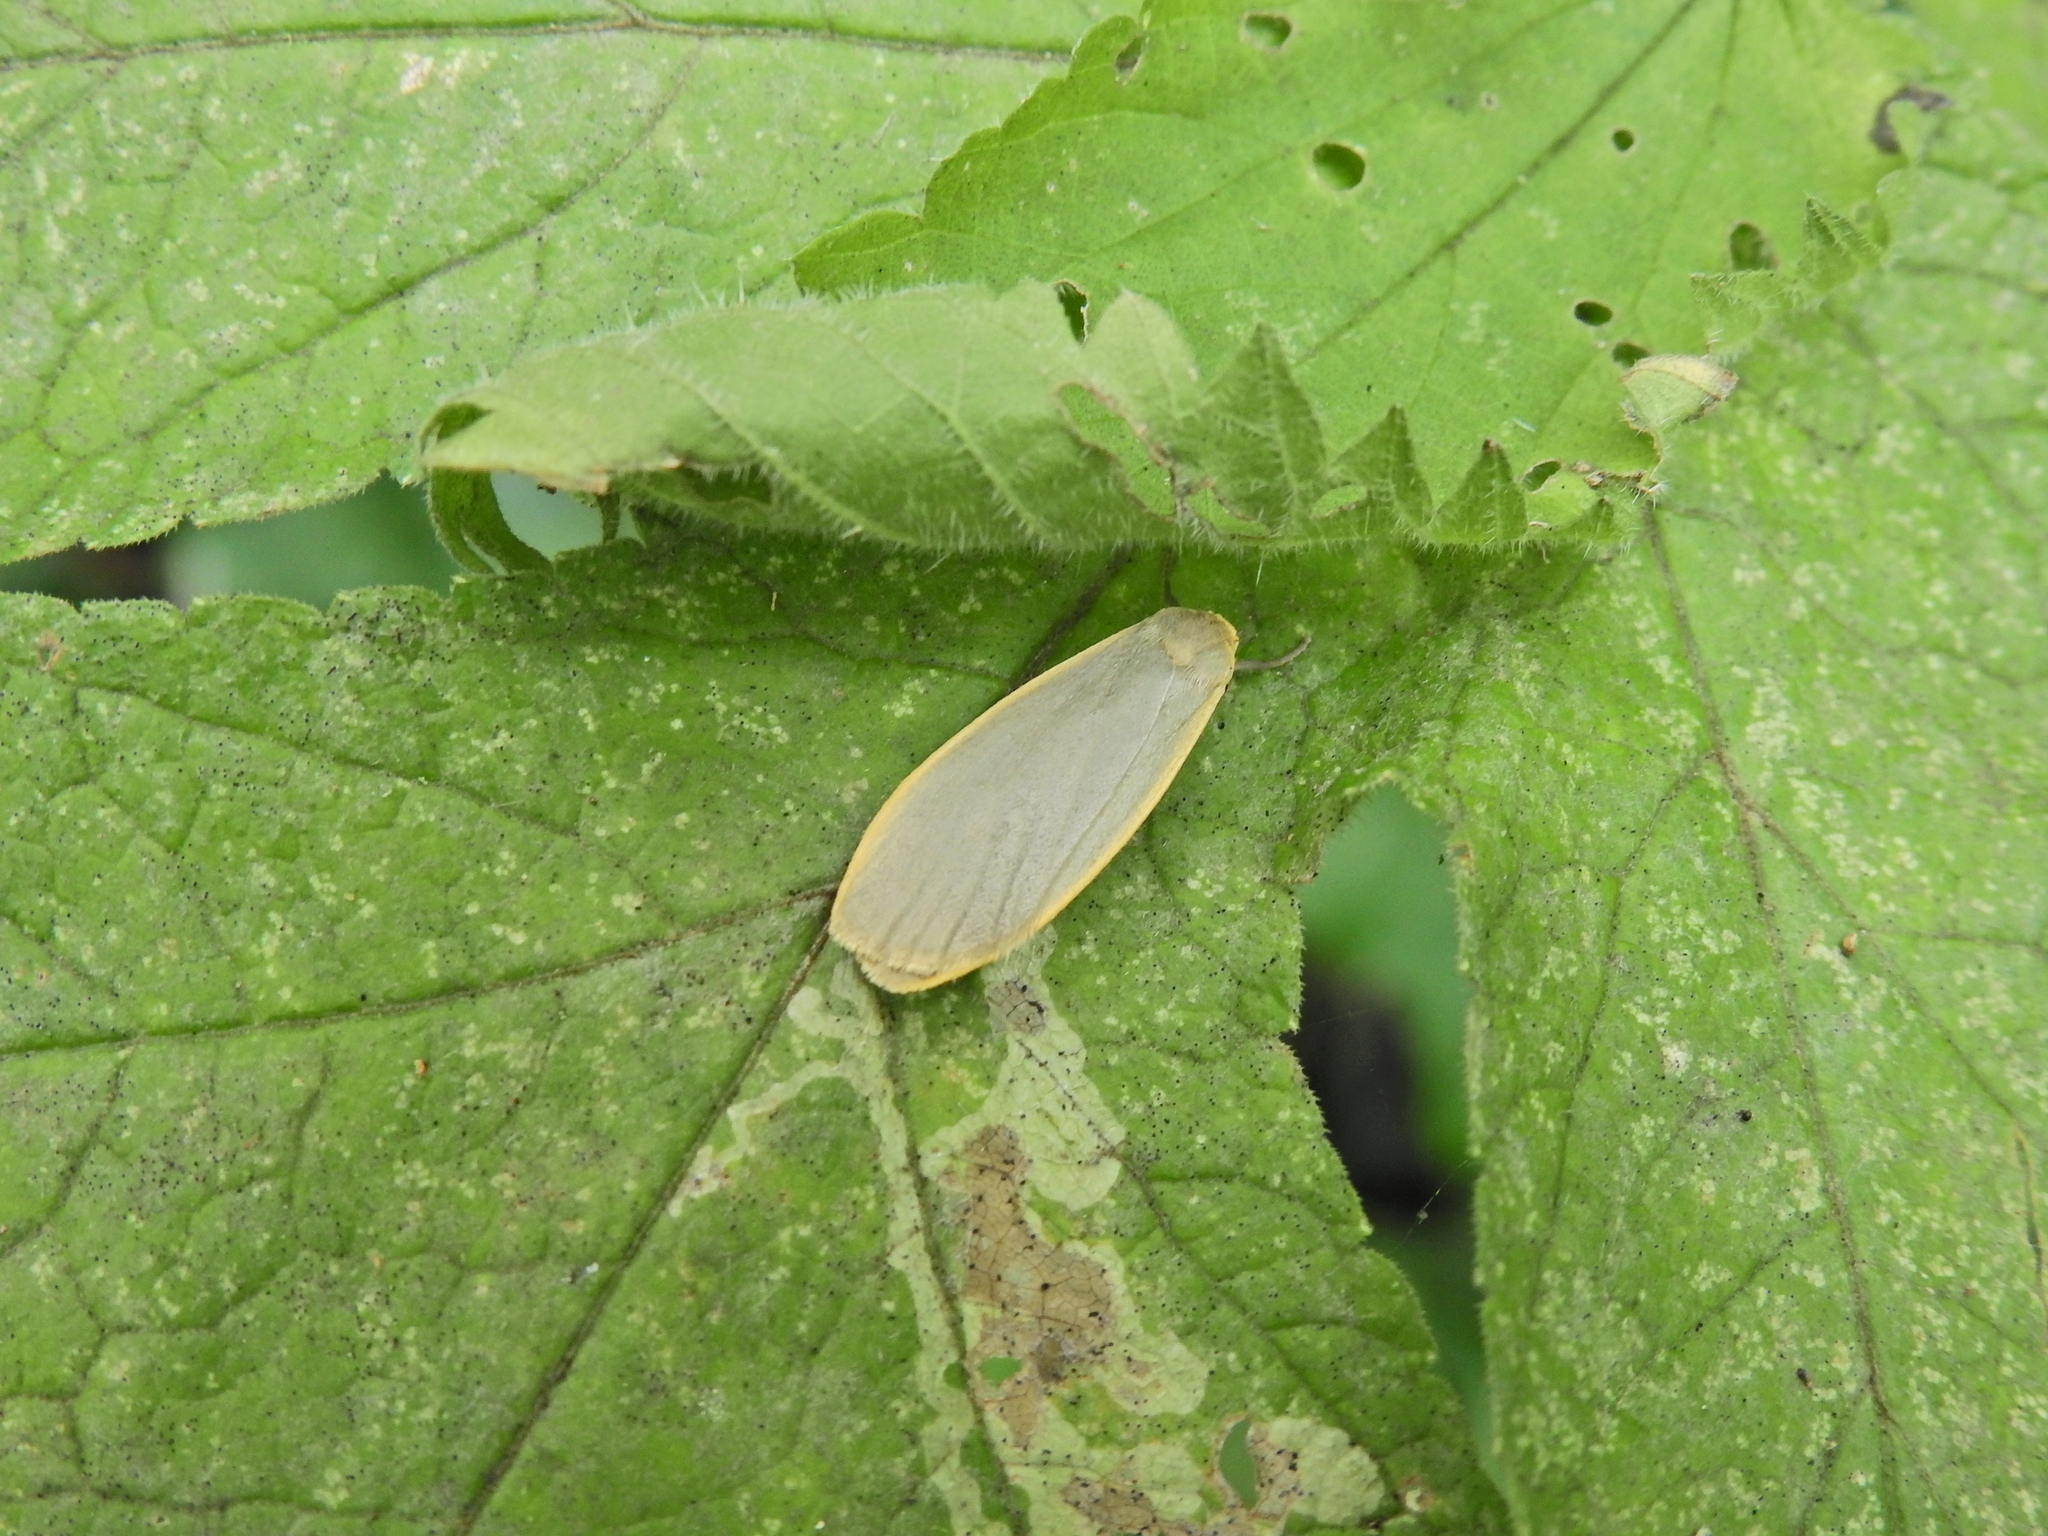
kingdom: Animalia
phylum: Arthropoda
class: Insecta
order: Lepidoptera
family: Erebidae
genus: Collita
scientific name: Collita griseola
